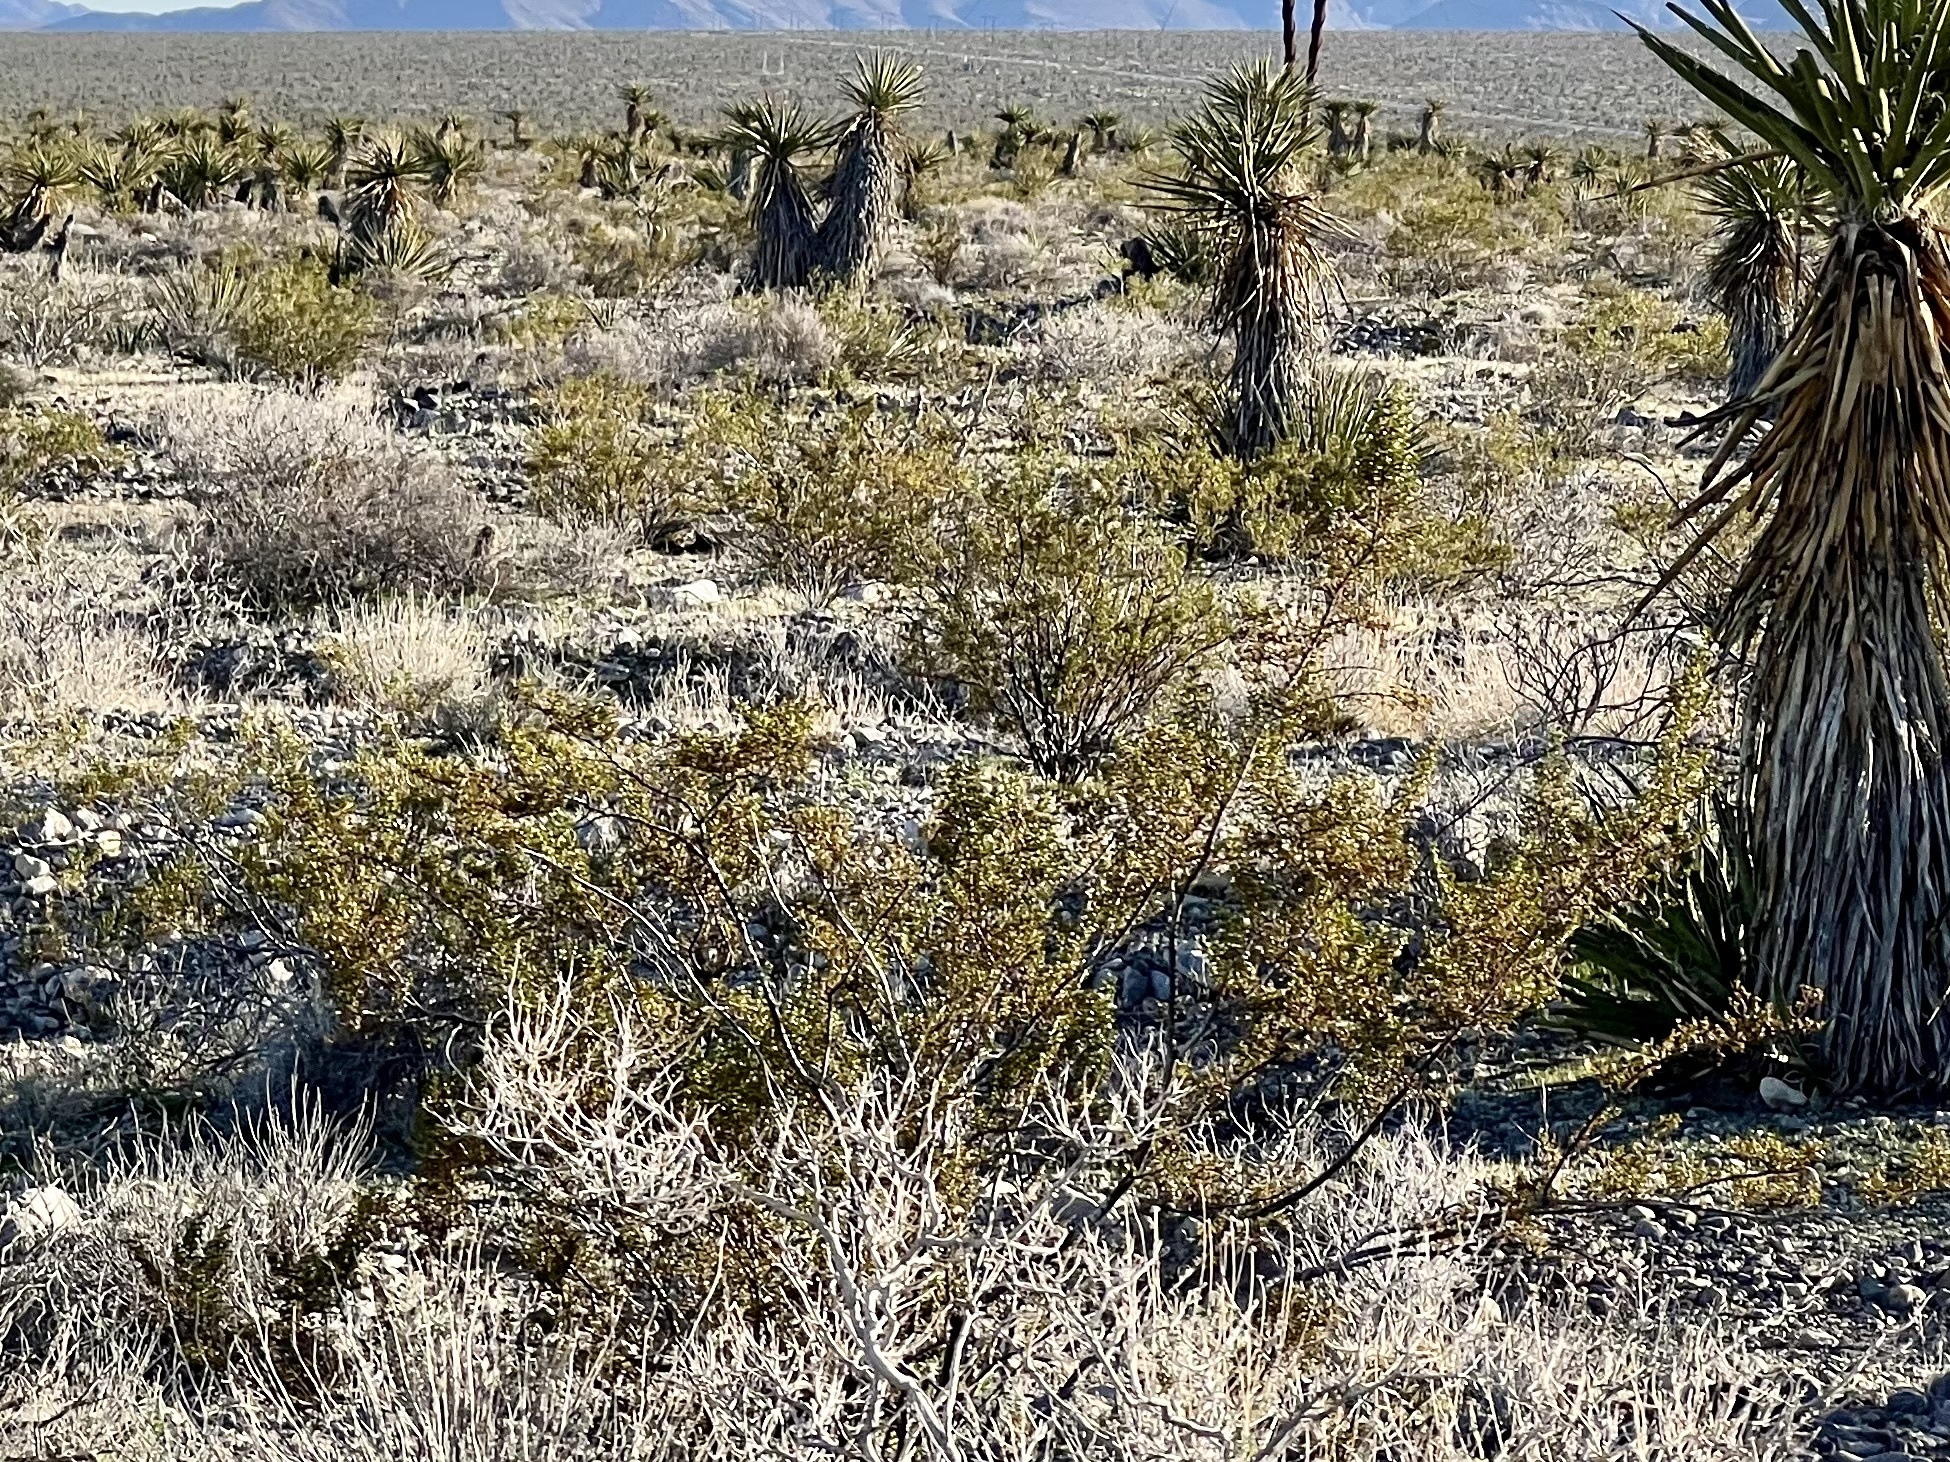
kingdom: Plantae
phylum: Tracheophyta
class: Magnoliopsida
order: Zygophyllales
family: Zygophyllaceae
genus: Larrea
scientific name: Larrea tridentata
